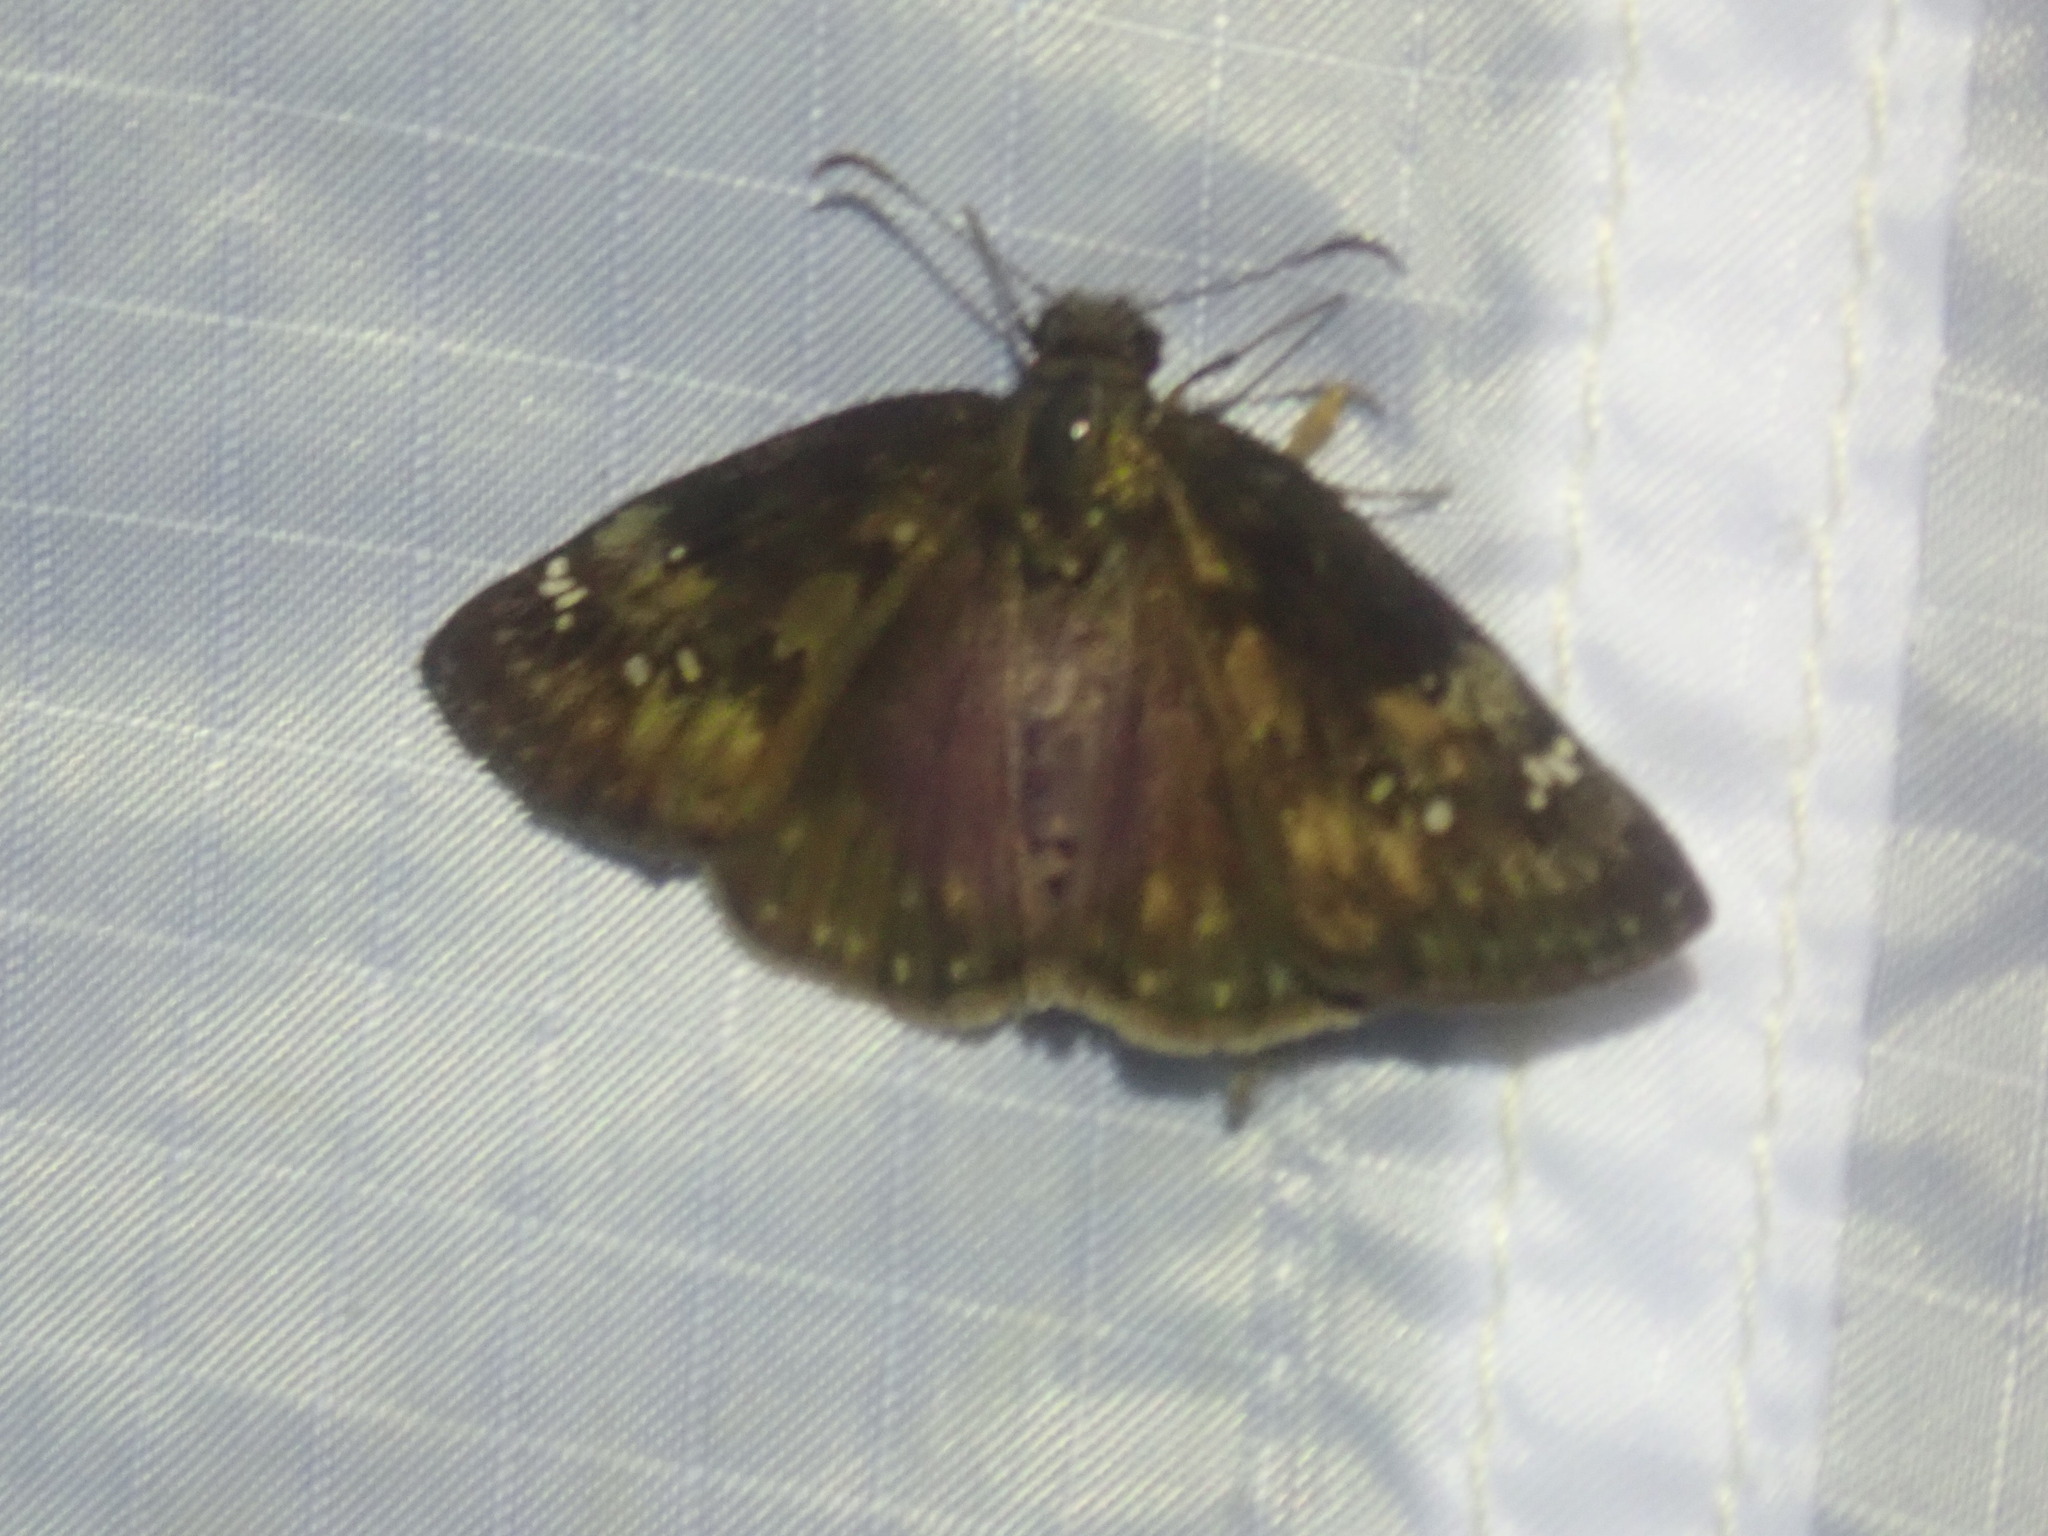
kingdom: Animalia
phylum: Arthropoda
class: Insecta
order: Lepidoptera
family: Hesperiidae
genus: Erynnis
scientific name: Erynnis baptisiae
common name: Wild indigo duskywing
